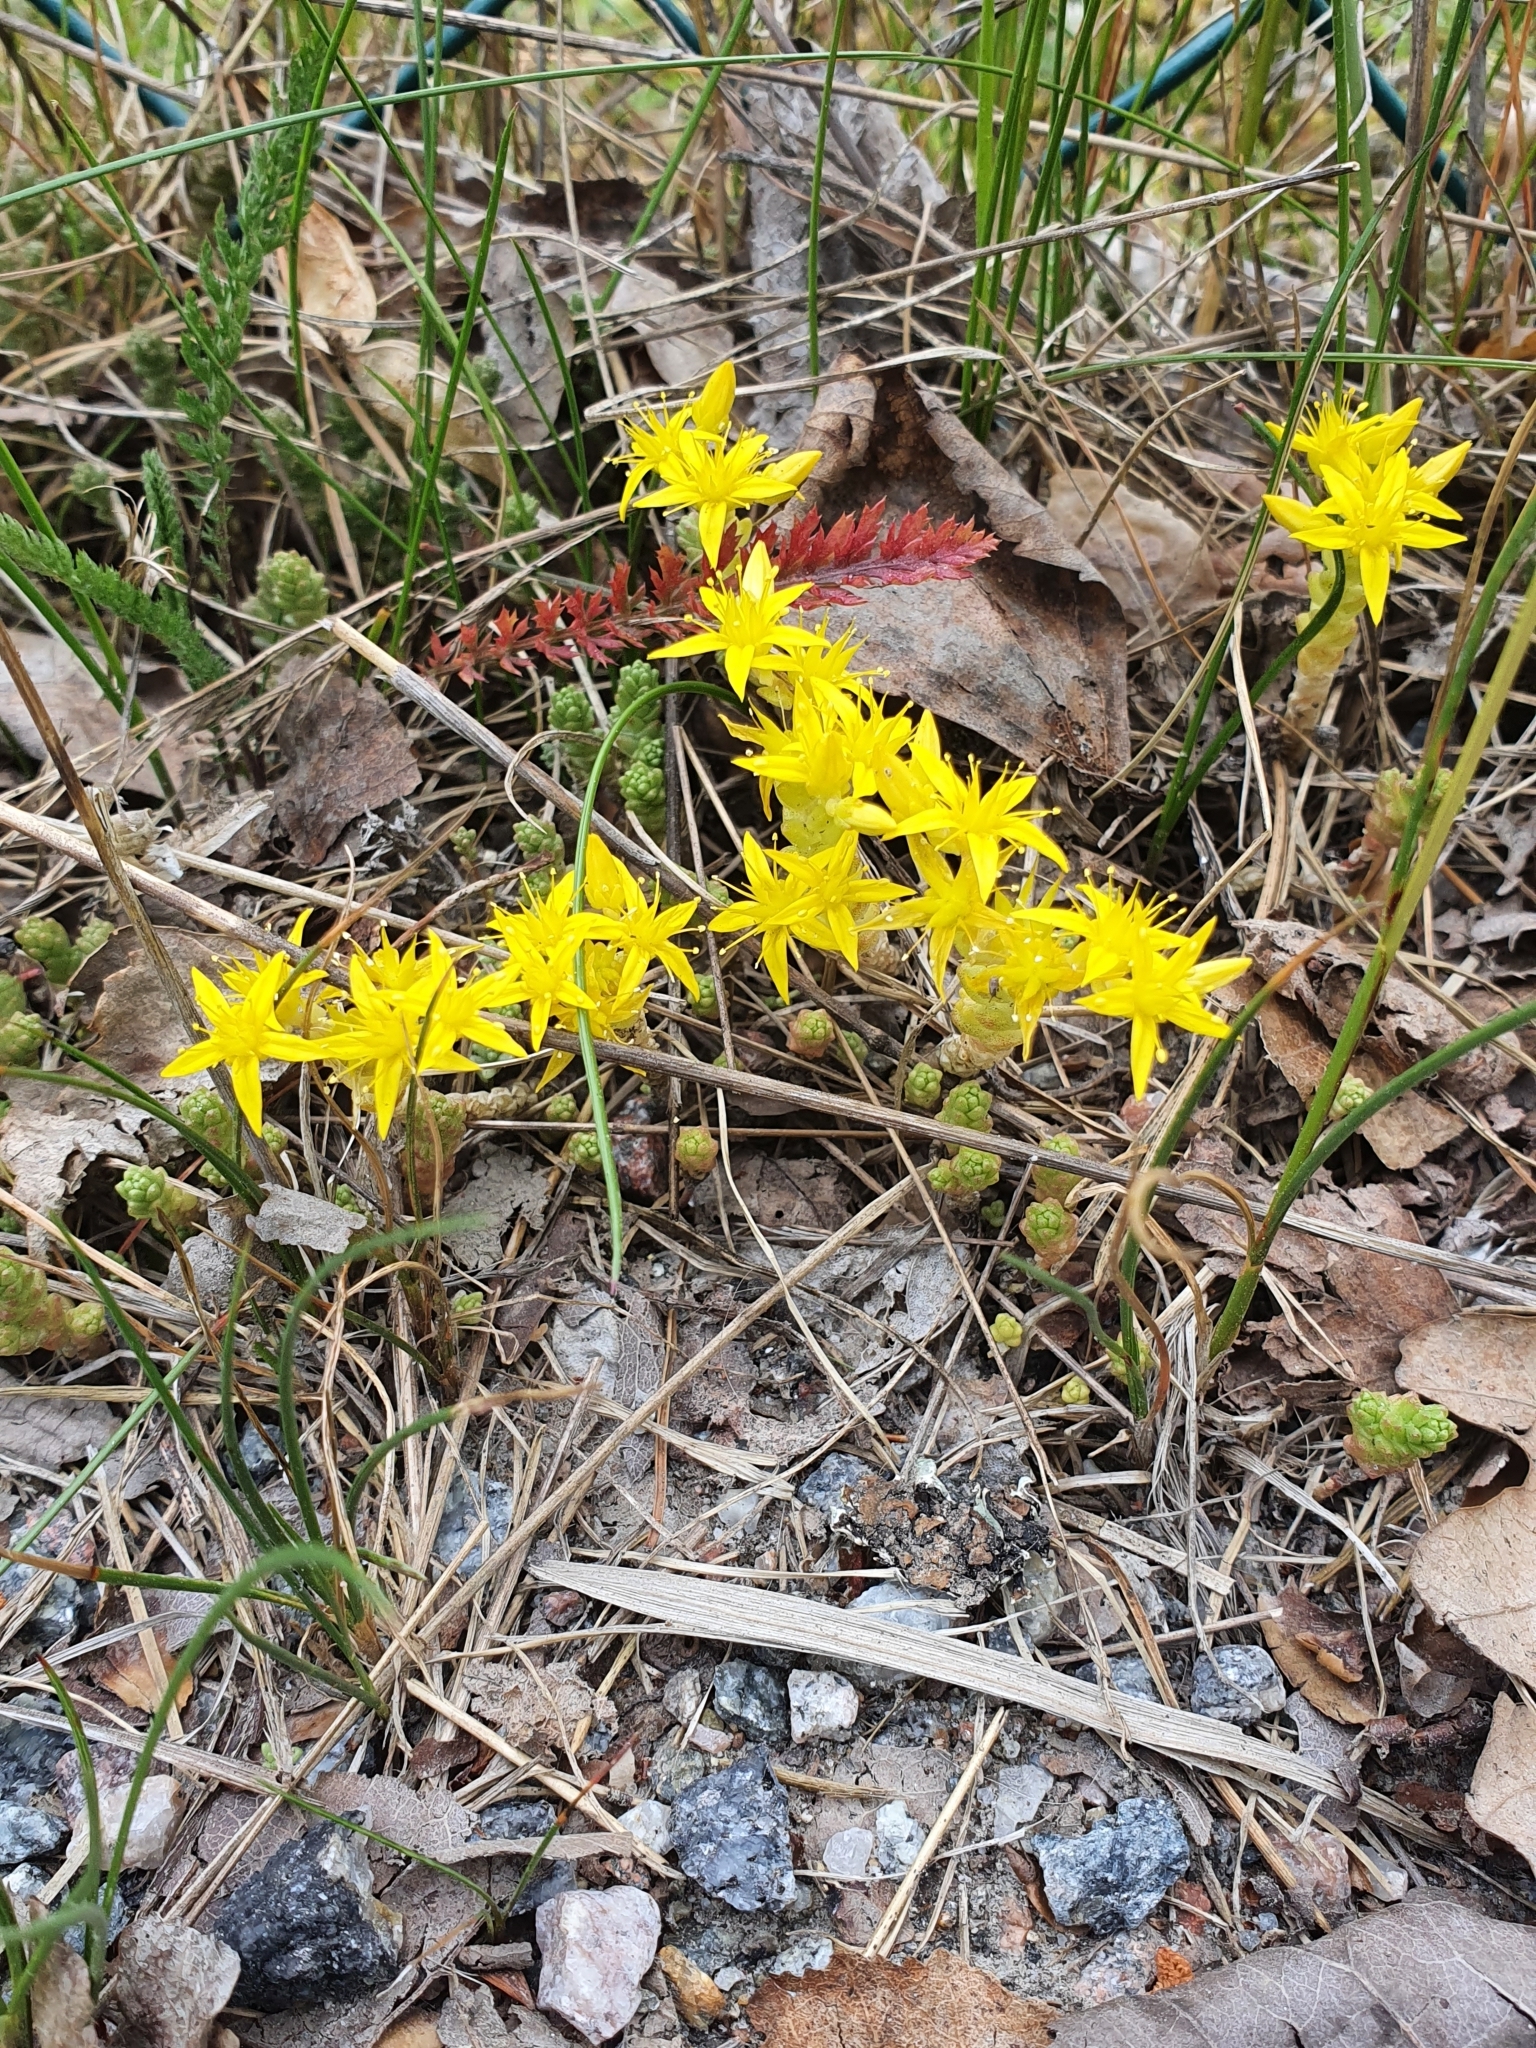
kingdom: Plantae
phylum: Tracheophyta
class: Magnoliopsida
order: Saxifragales
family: Crassulaceae
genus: Sedum
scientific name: Sedum acre
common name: Biting stonecrop
